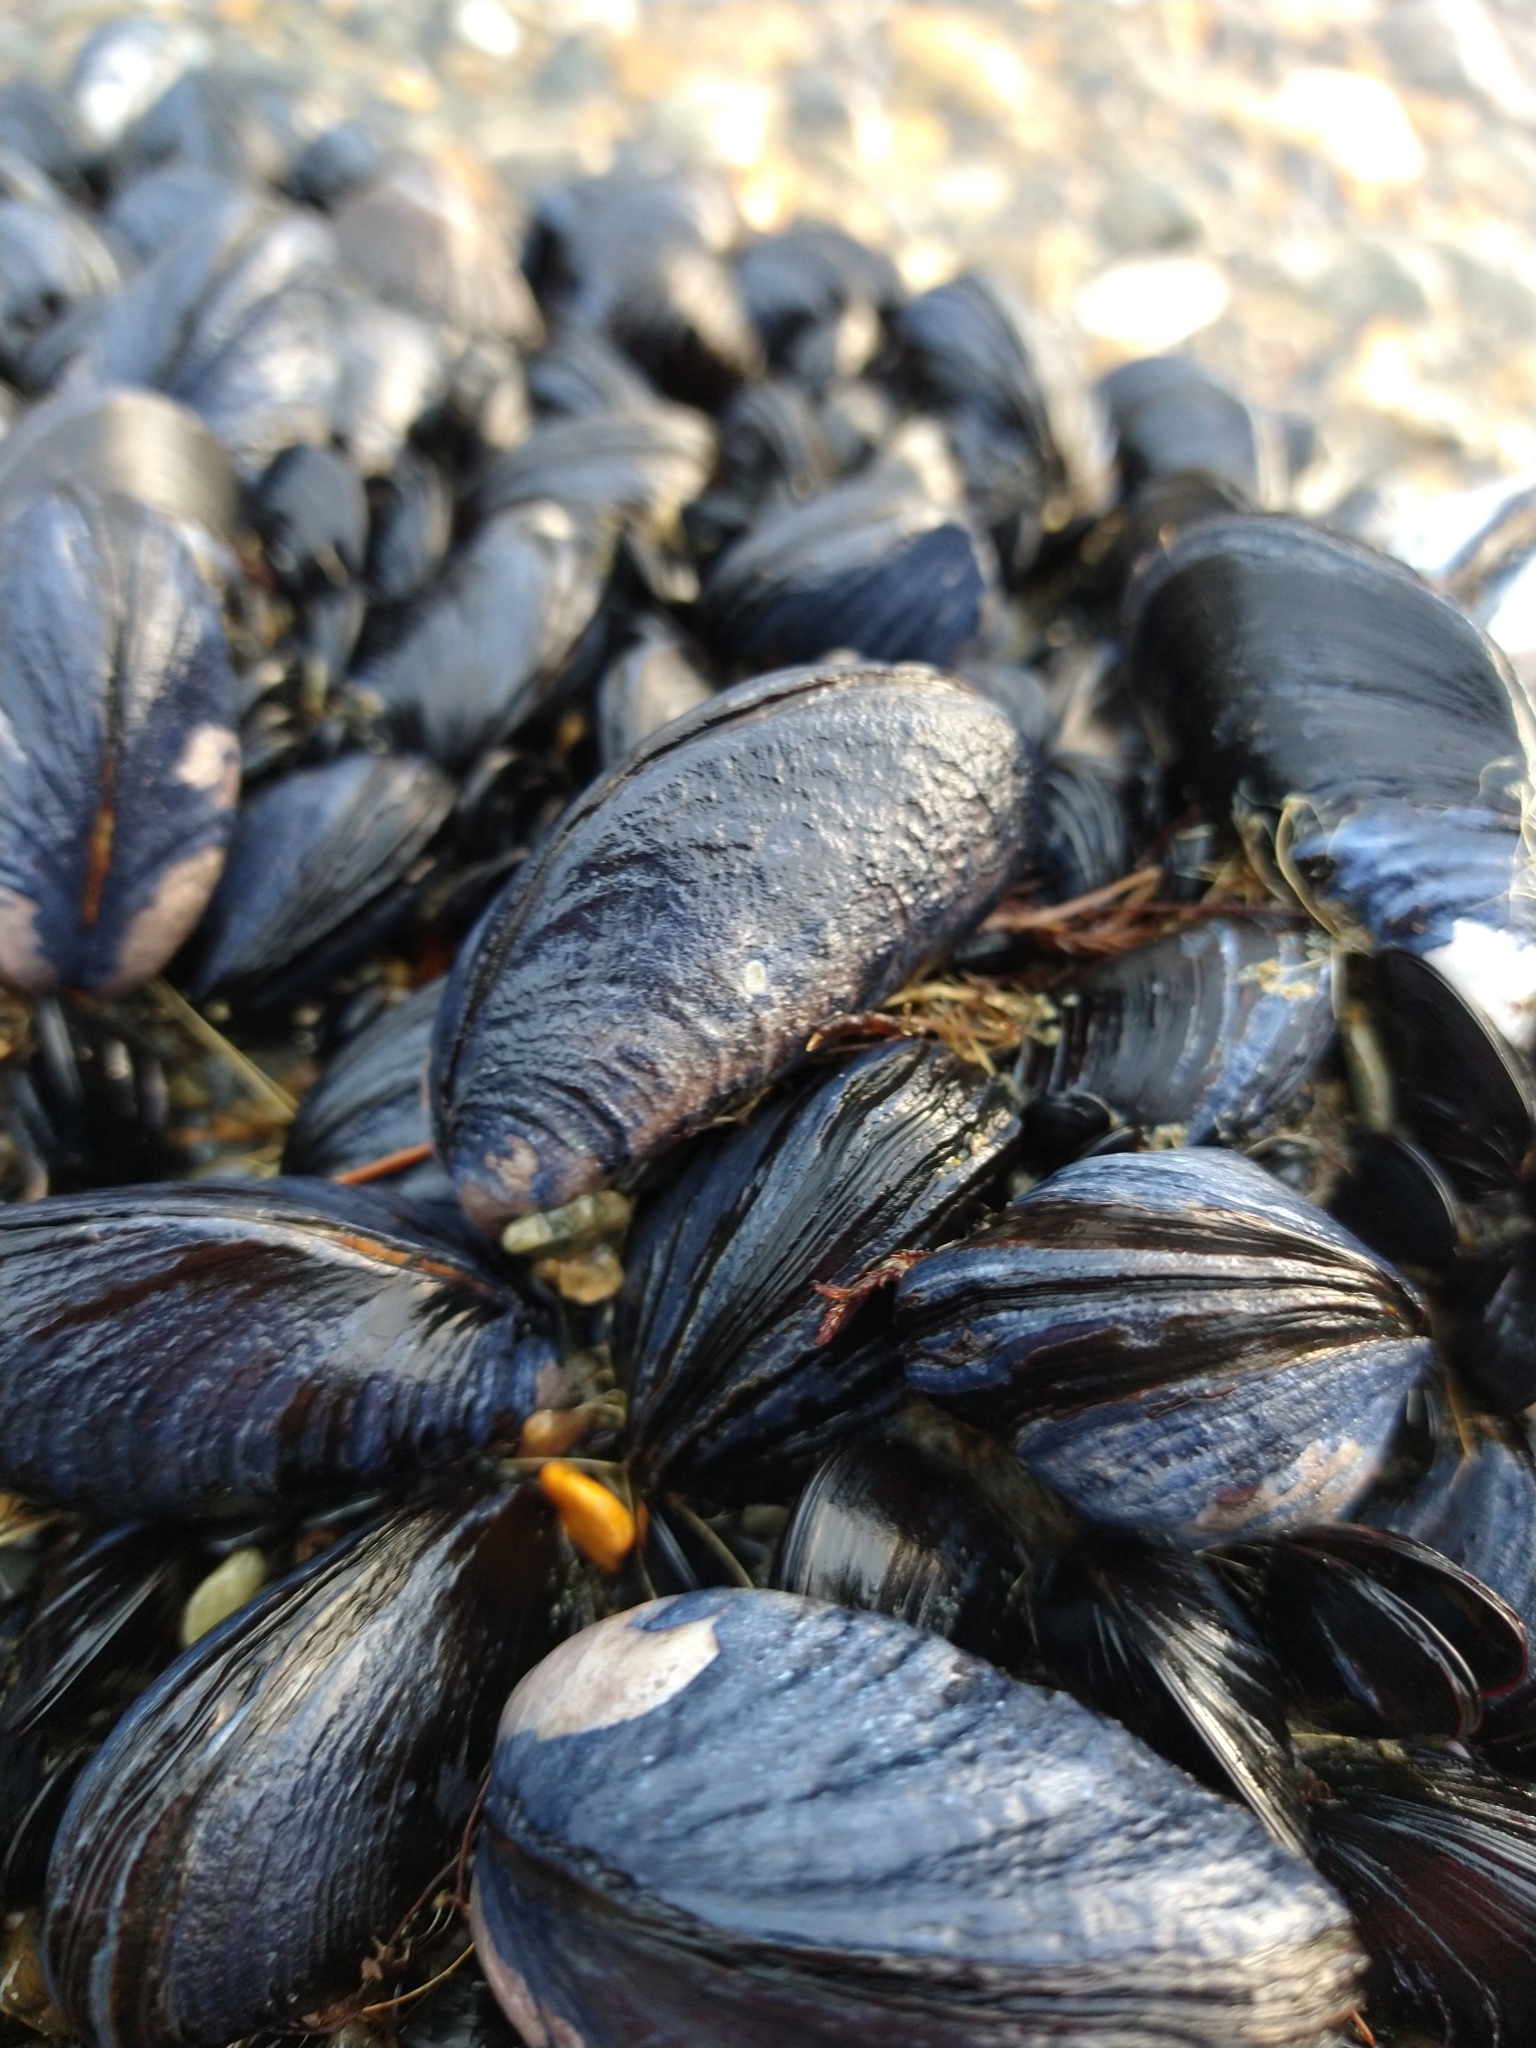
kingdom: Animalia
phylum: Mollusca
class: Bivalvia
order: Mytilida
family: Mytilidae
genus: Mytilus
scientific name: Mytilus chilensis
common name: Chilean mussel
